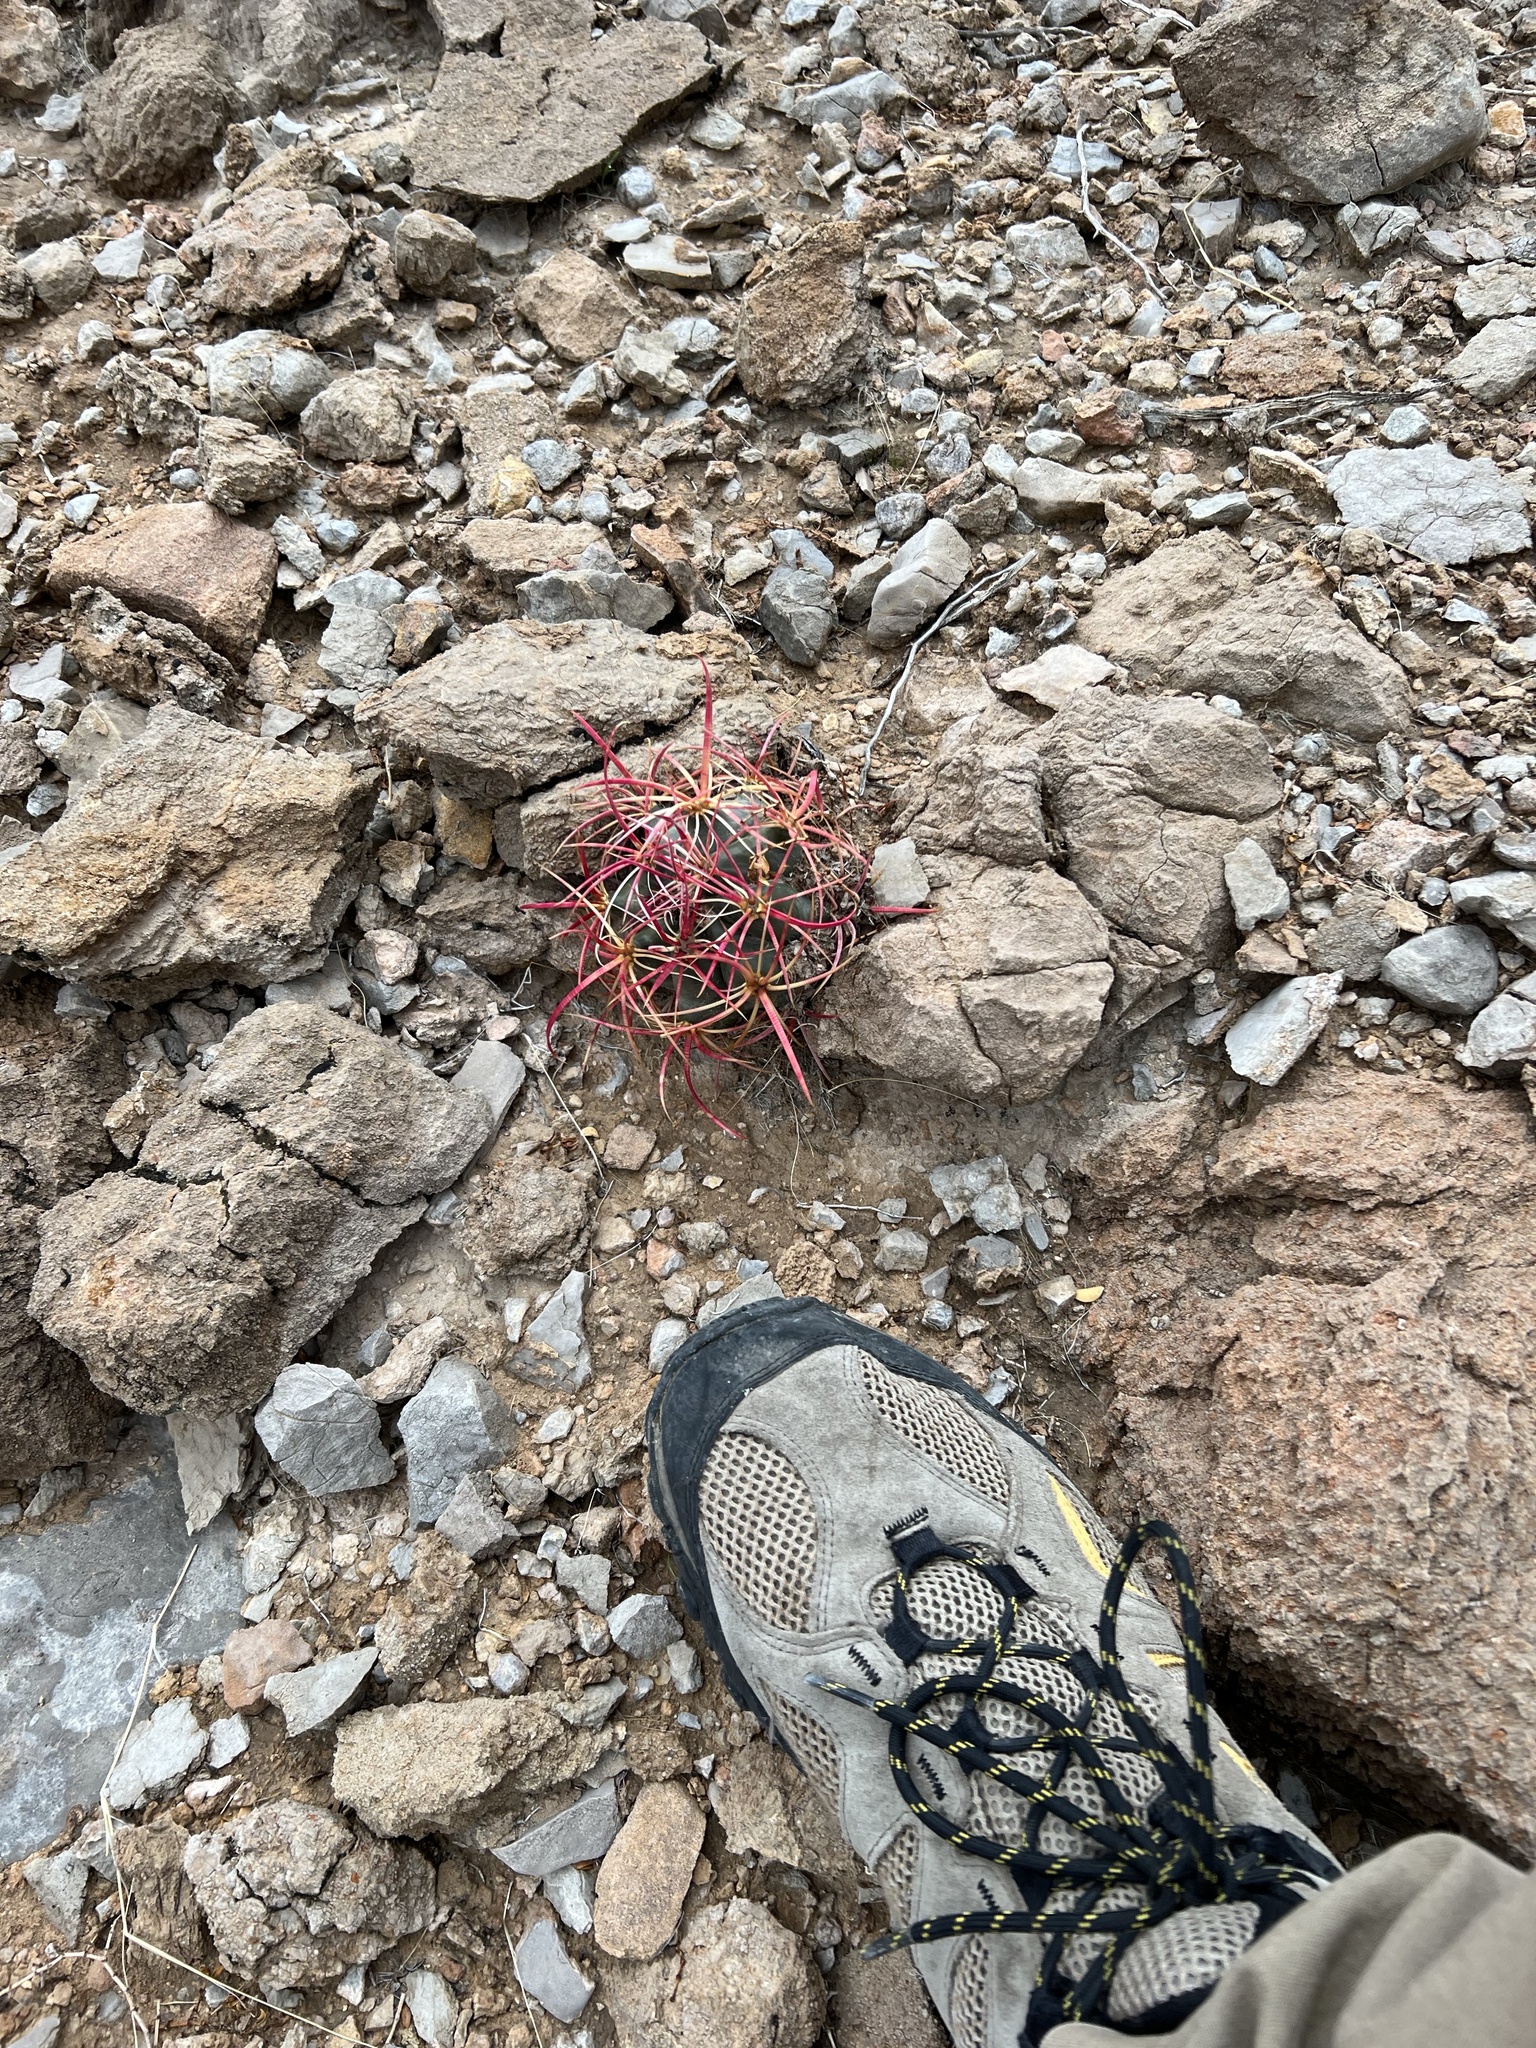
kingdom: Plantae
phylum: Tracheophyta
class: Magnoliopsida
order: Caryophyllales
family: Cactaceae
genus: Ferocactus
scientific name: Ferocactus cylindraceus
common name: California barrel cactus
